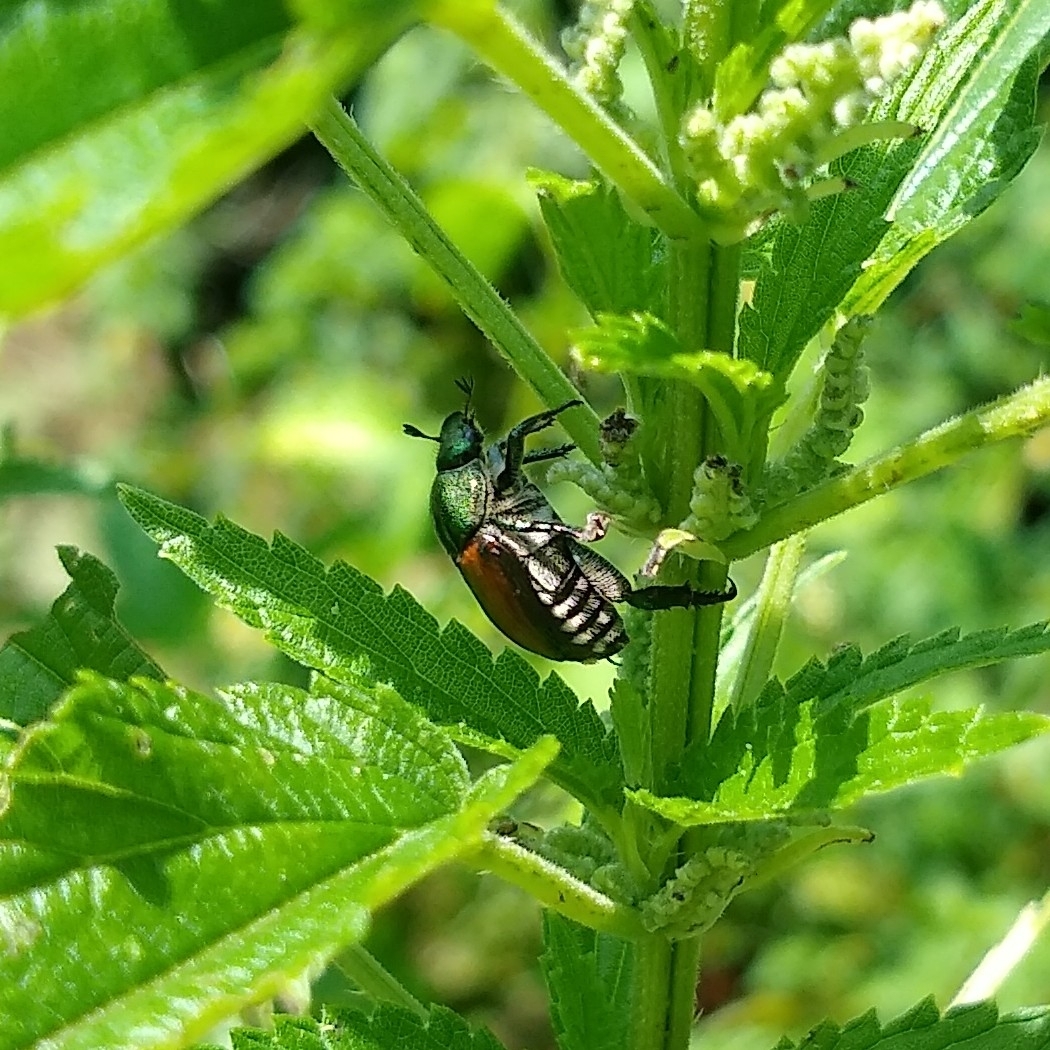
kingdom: Animalia
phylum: Arthropoda
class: Insecta
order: Coleoptera
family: Scarabaeidae
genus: Popillia
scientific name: Popillia japonica
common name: Japanese beetle
